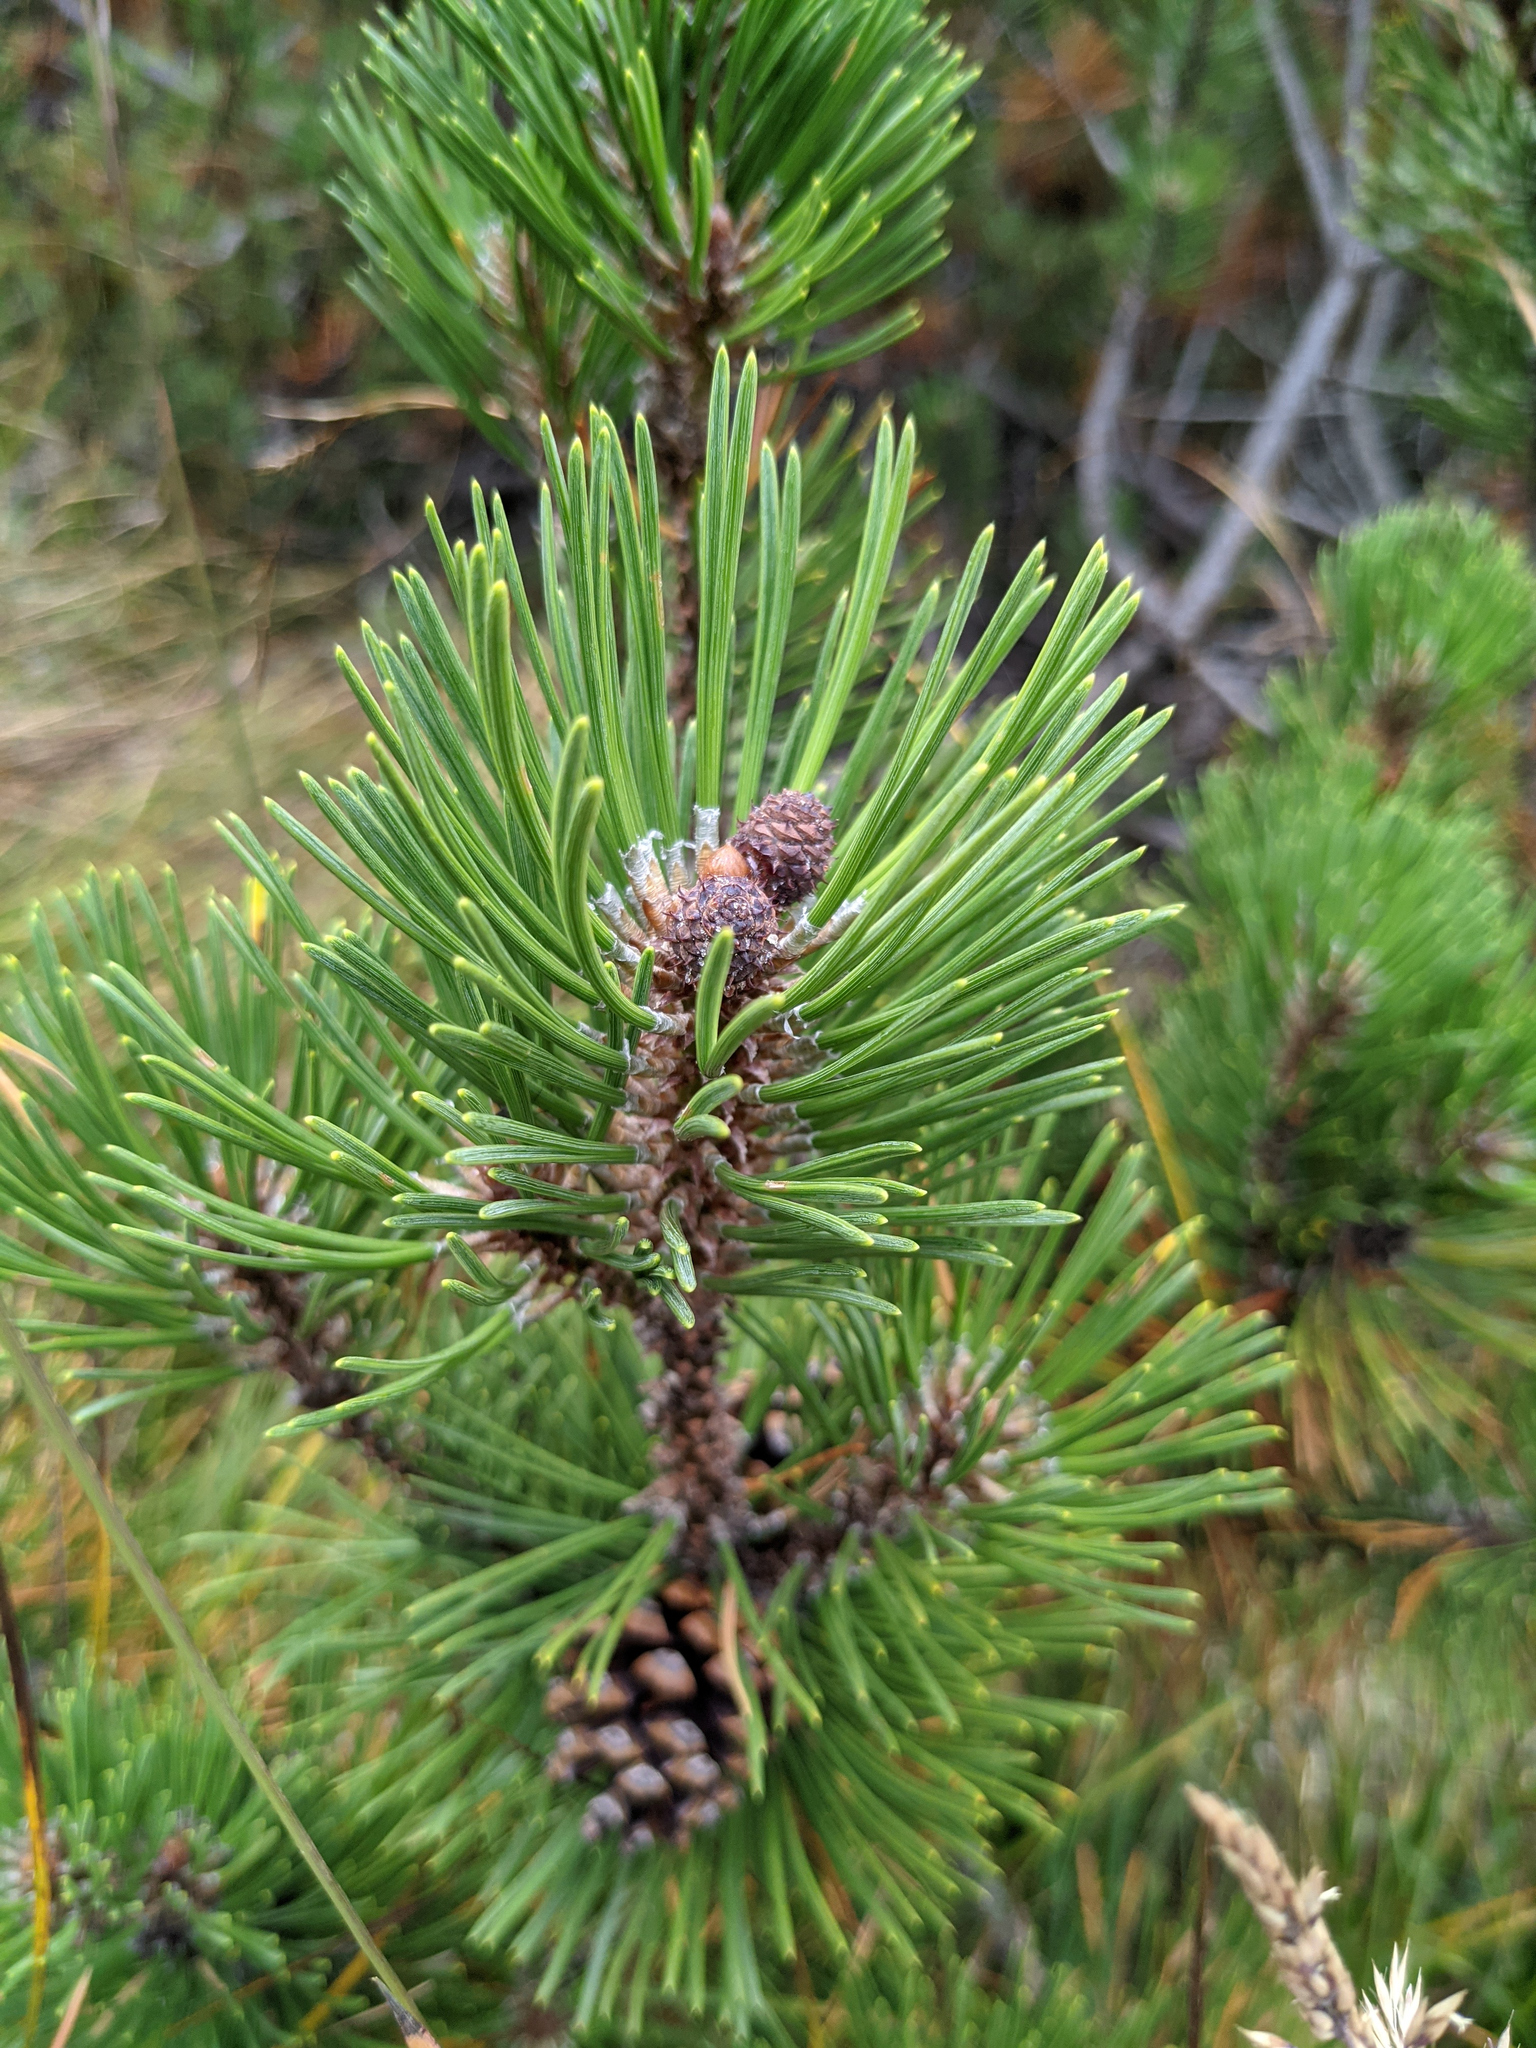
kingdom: Plantae
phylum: Tracheophyta
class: Pinopsida
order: Pinales
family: Pinaceae
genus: Pinus
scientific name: Pinus mugo
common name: Mugo pine
